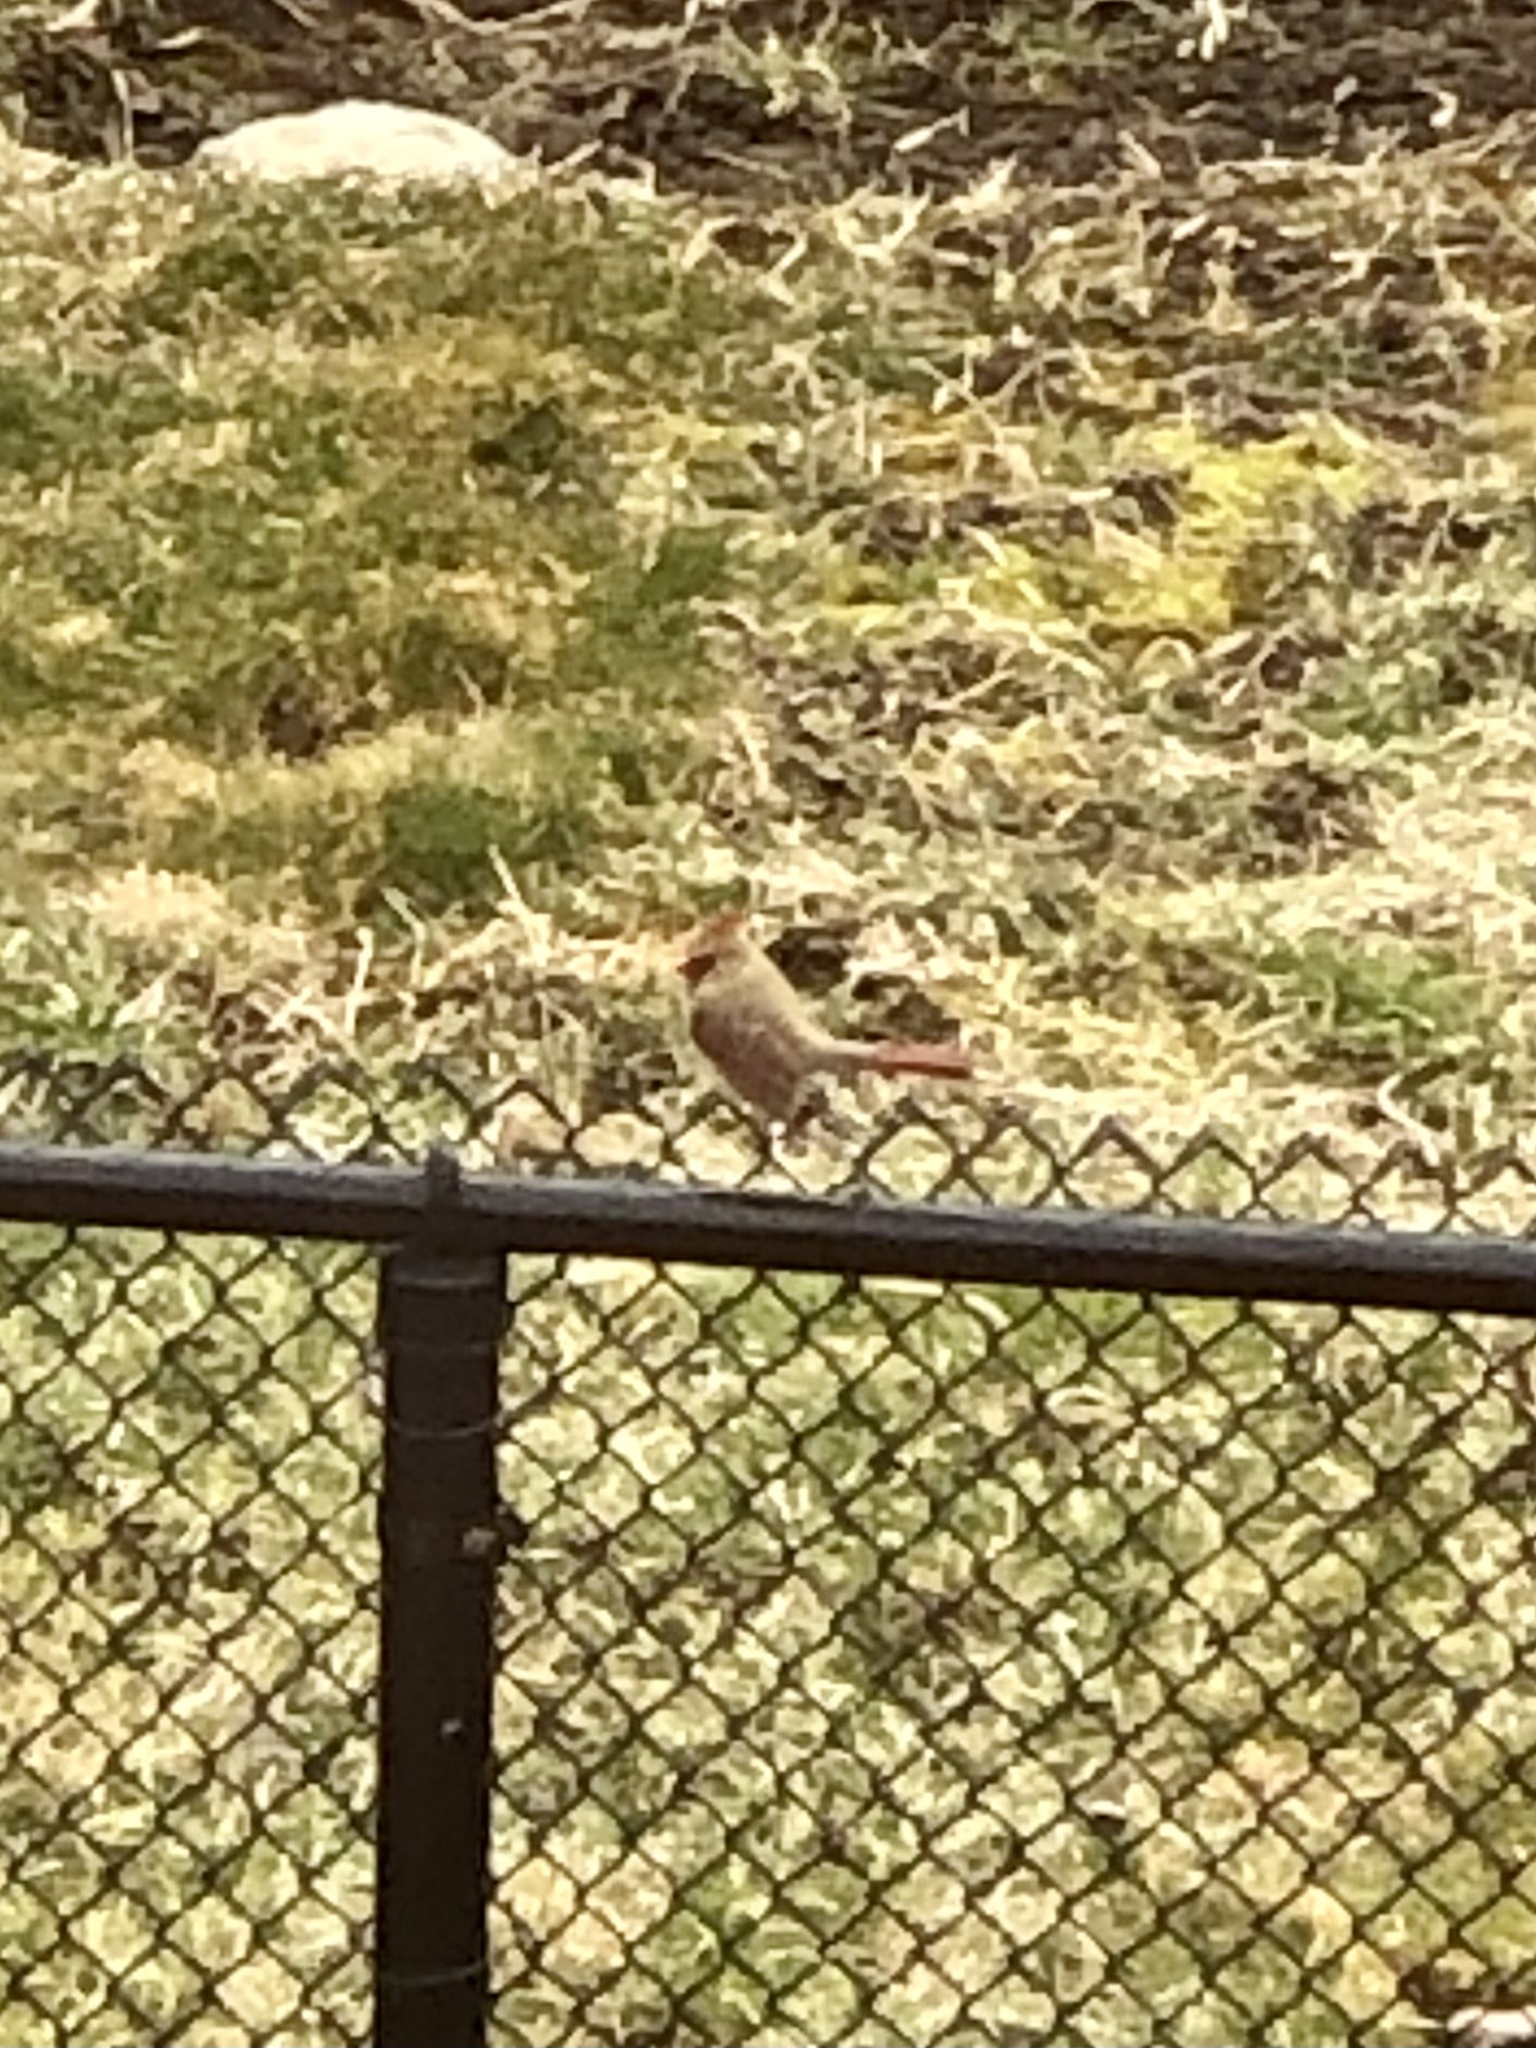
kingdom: Animalia
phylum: Chordata
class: Aves
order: Passeriformes
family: Cardinalidae
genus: Cardinalis
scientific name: Cardinalis cardinalis
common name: Northern cardinal
